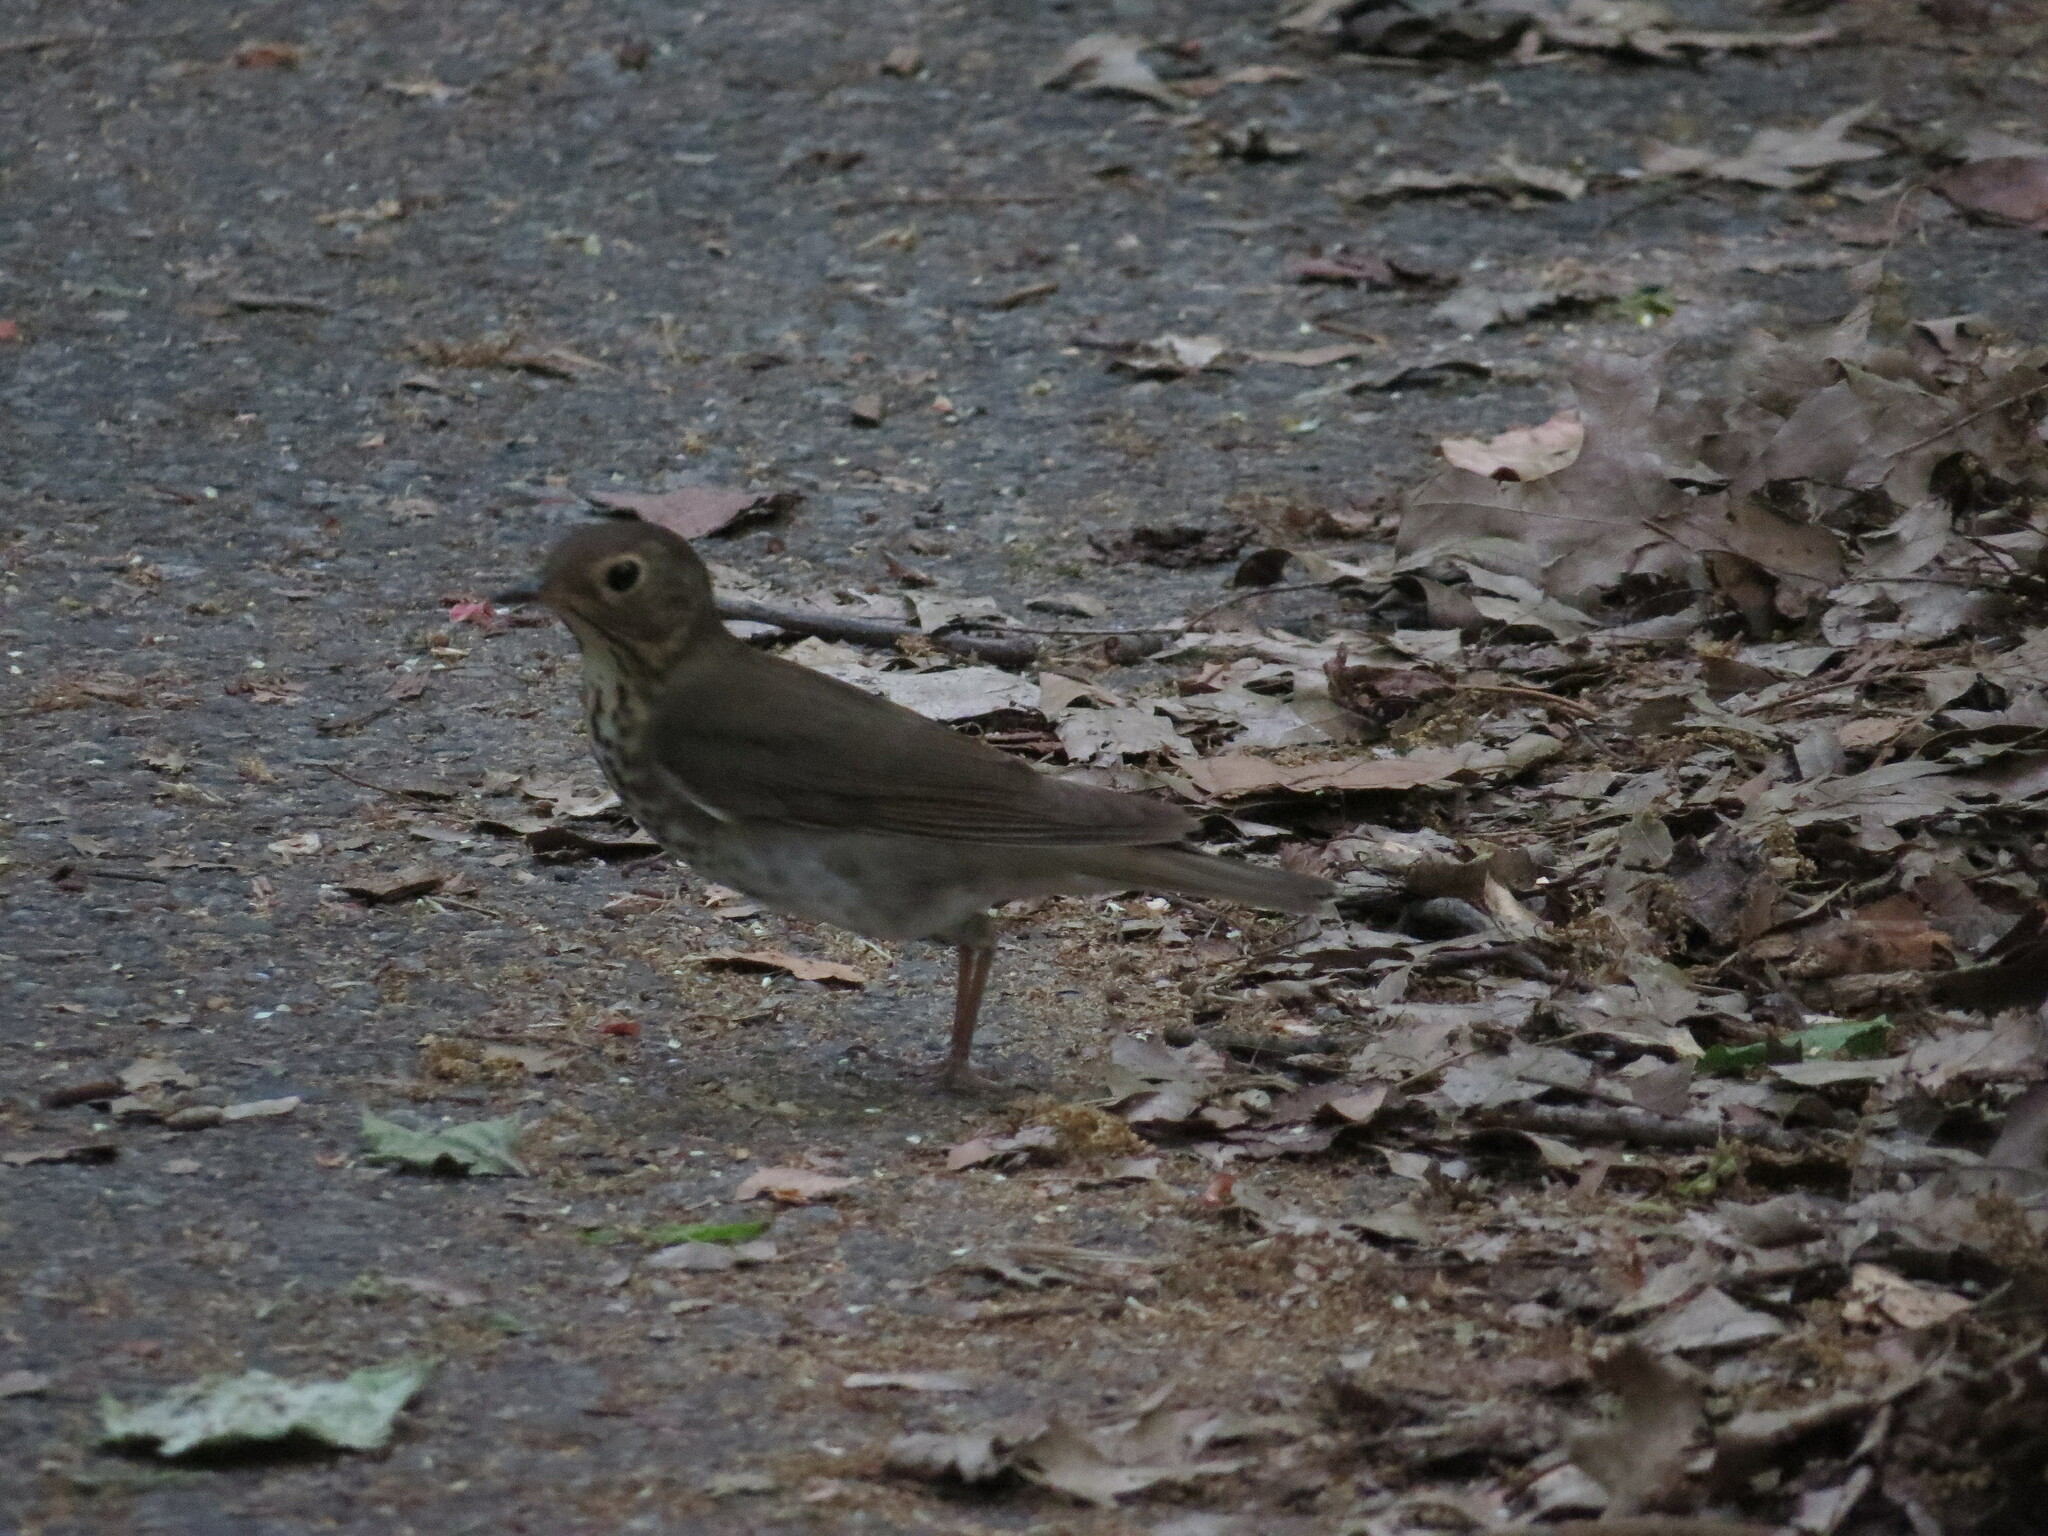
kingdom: Animalia
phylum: Chordata
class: Aves
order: Passeriformes
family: Turdidae
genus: Catharus
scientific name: Catharus ustulatus
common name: Swainson's thrush
